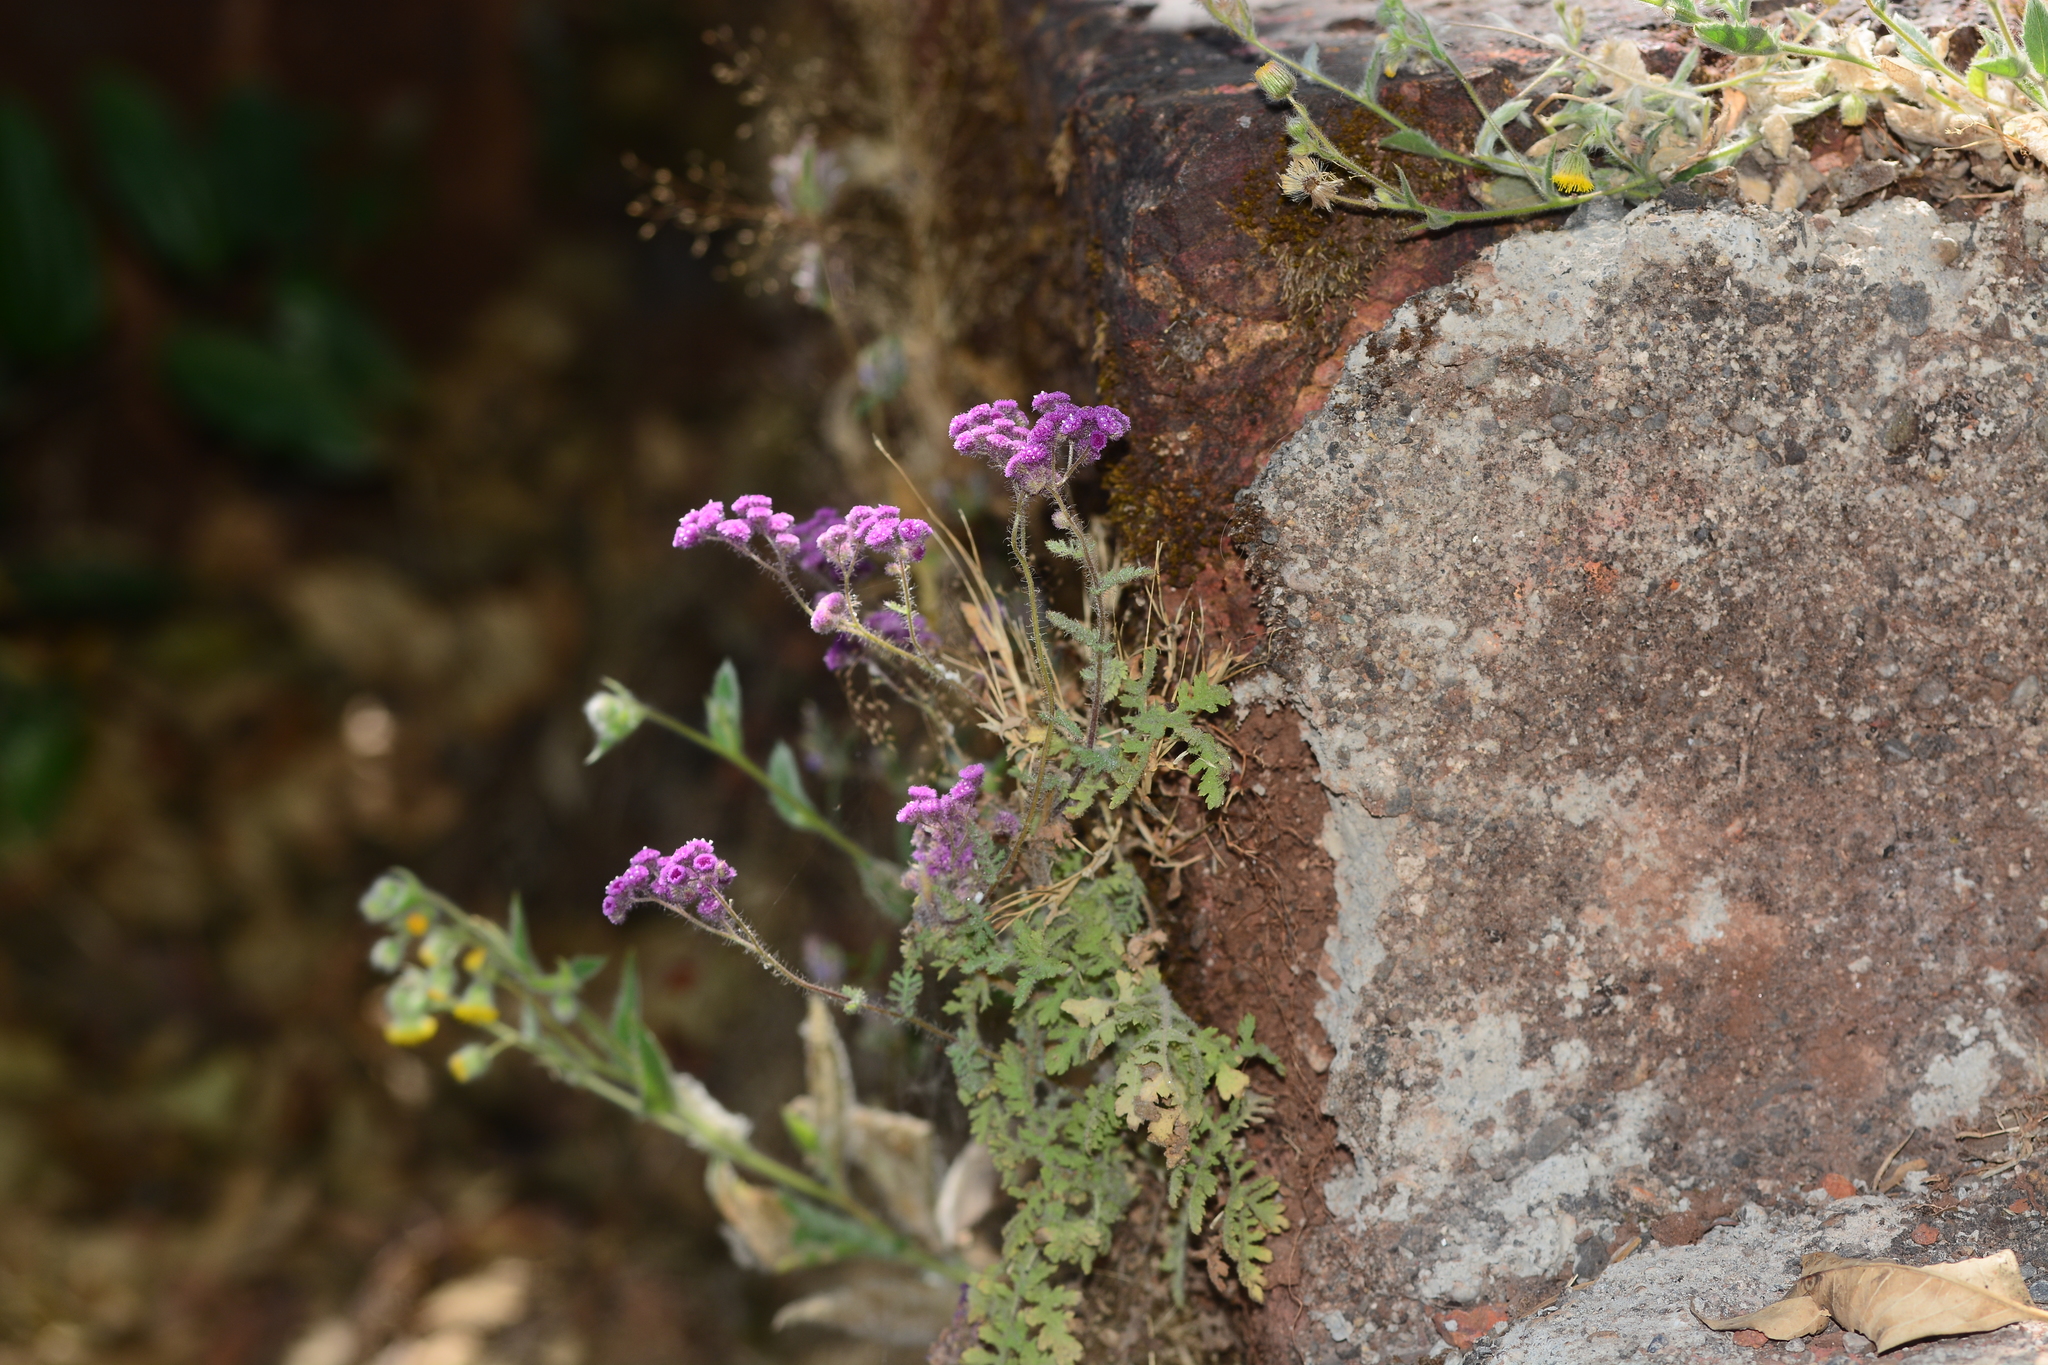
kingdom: Plantae
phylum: Tracheophyta
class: Magnoliopsida
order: Asterales
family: Asteraceae
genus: Cyathocline
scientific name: Cyathocline purpurea
